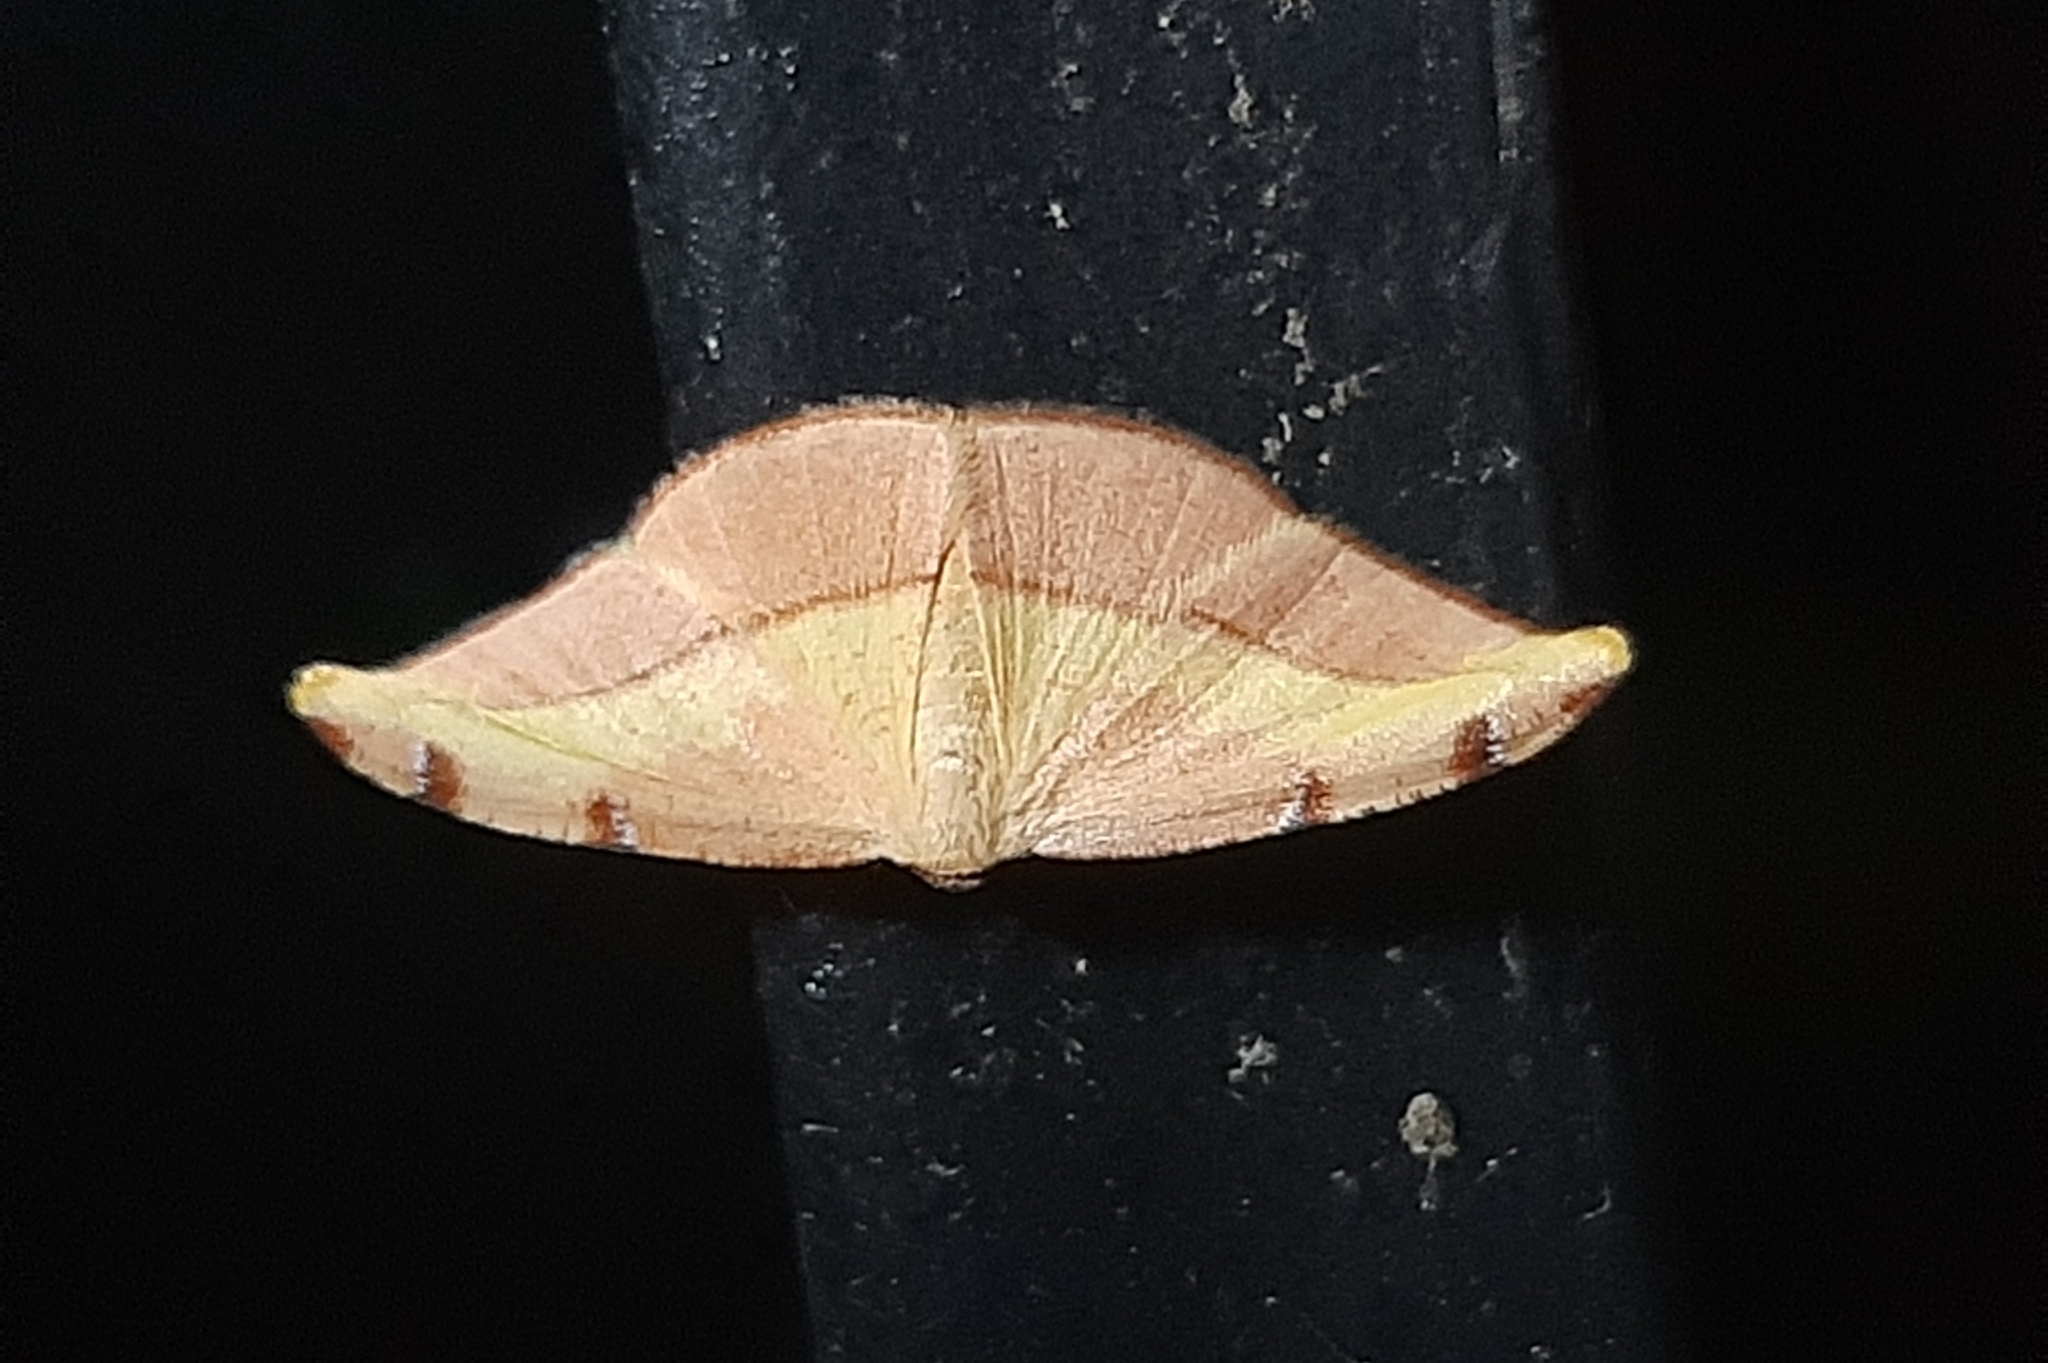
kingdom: Animalia
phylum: Arthropoda
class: Insecta
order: Lepidoptera
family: Geometridae
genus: Pyrinia
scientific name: Pyrinia divalis
